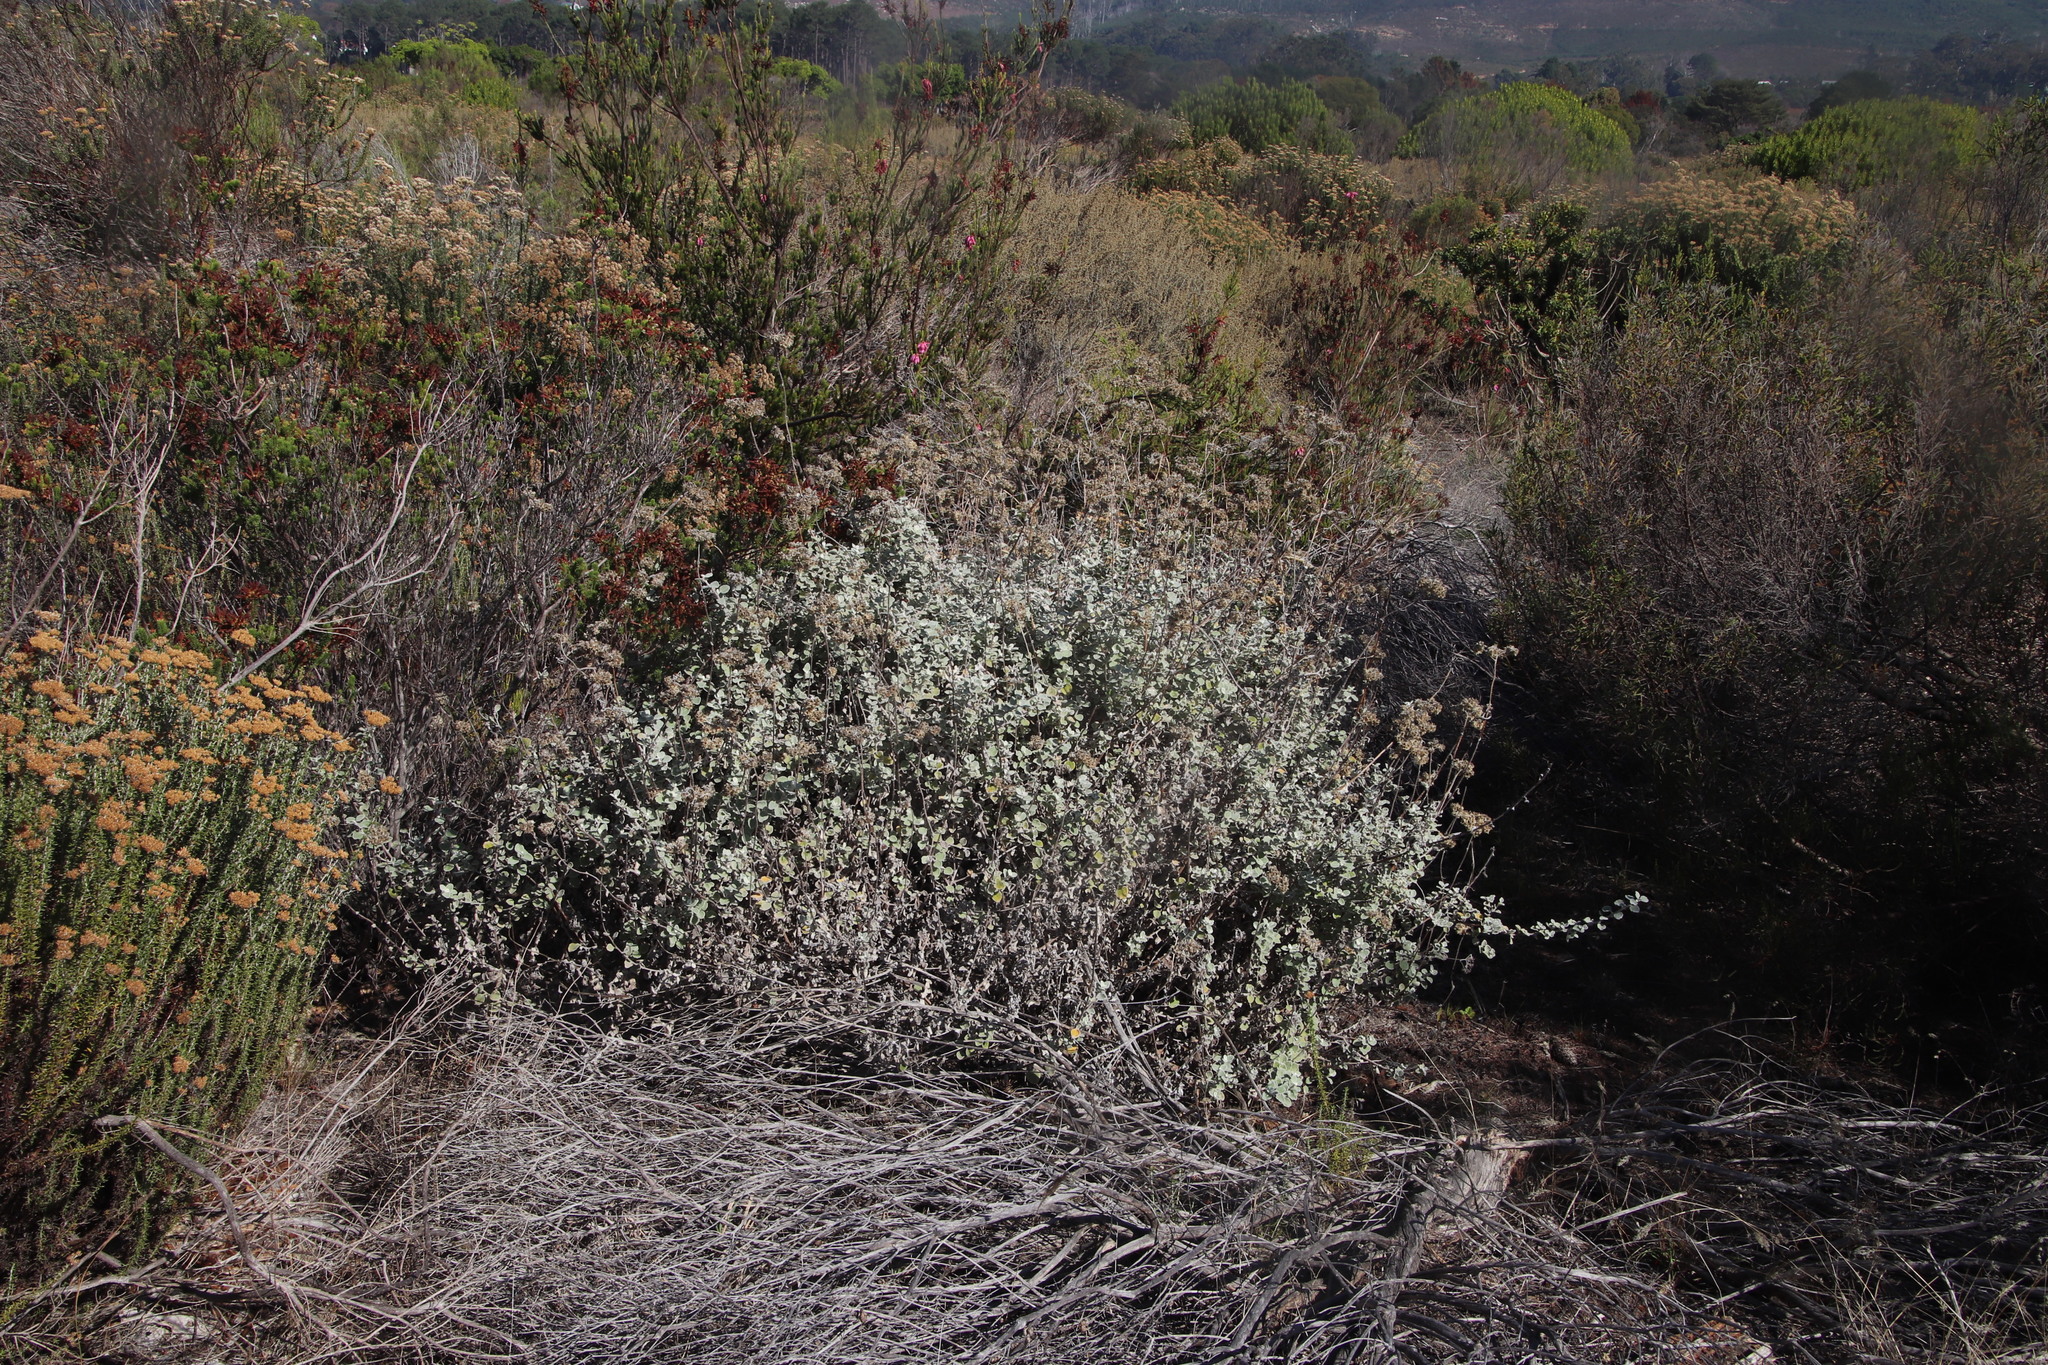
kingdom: Plantae
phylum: Tracheophyta
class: Magnoliopsida
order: Asterales
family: Asteraceae
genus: Helichrysum
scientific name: Helichrysum patulum
